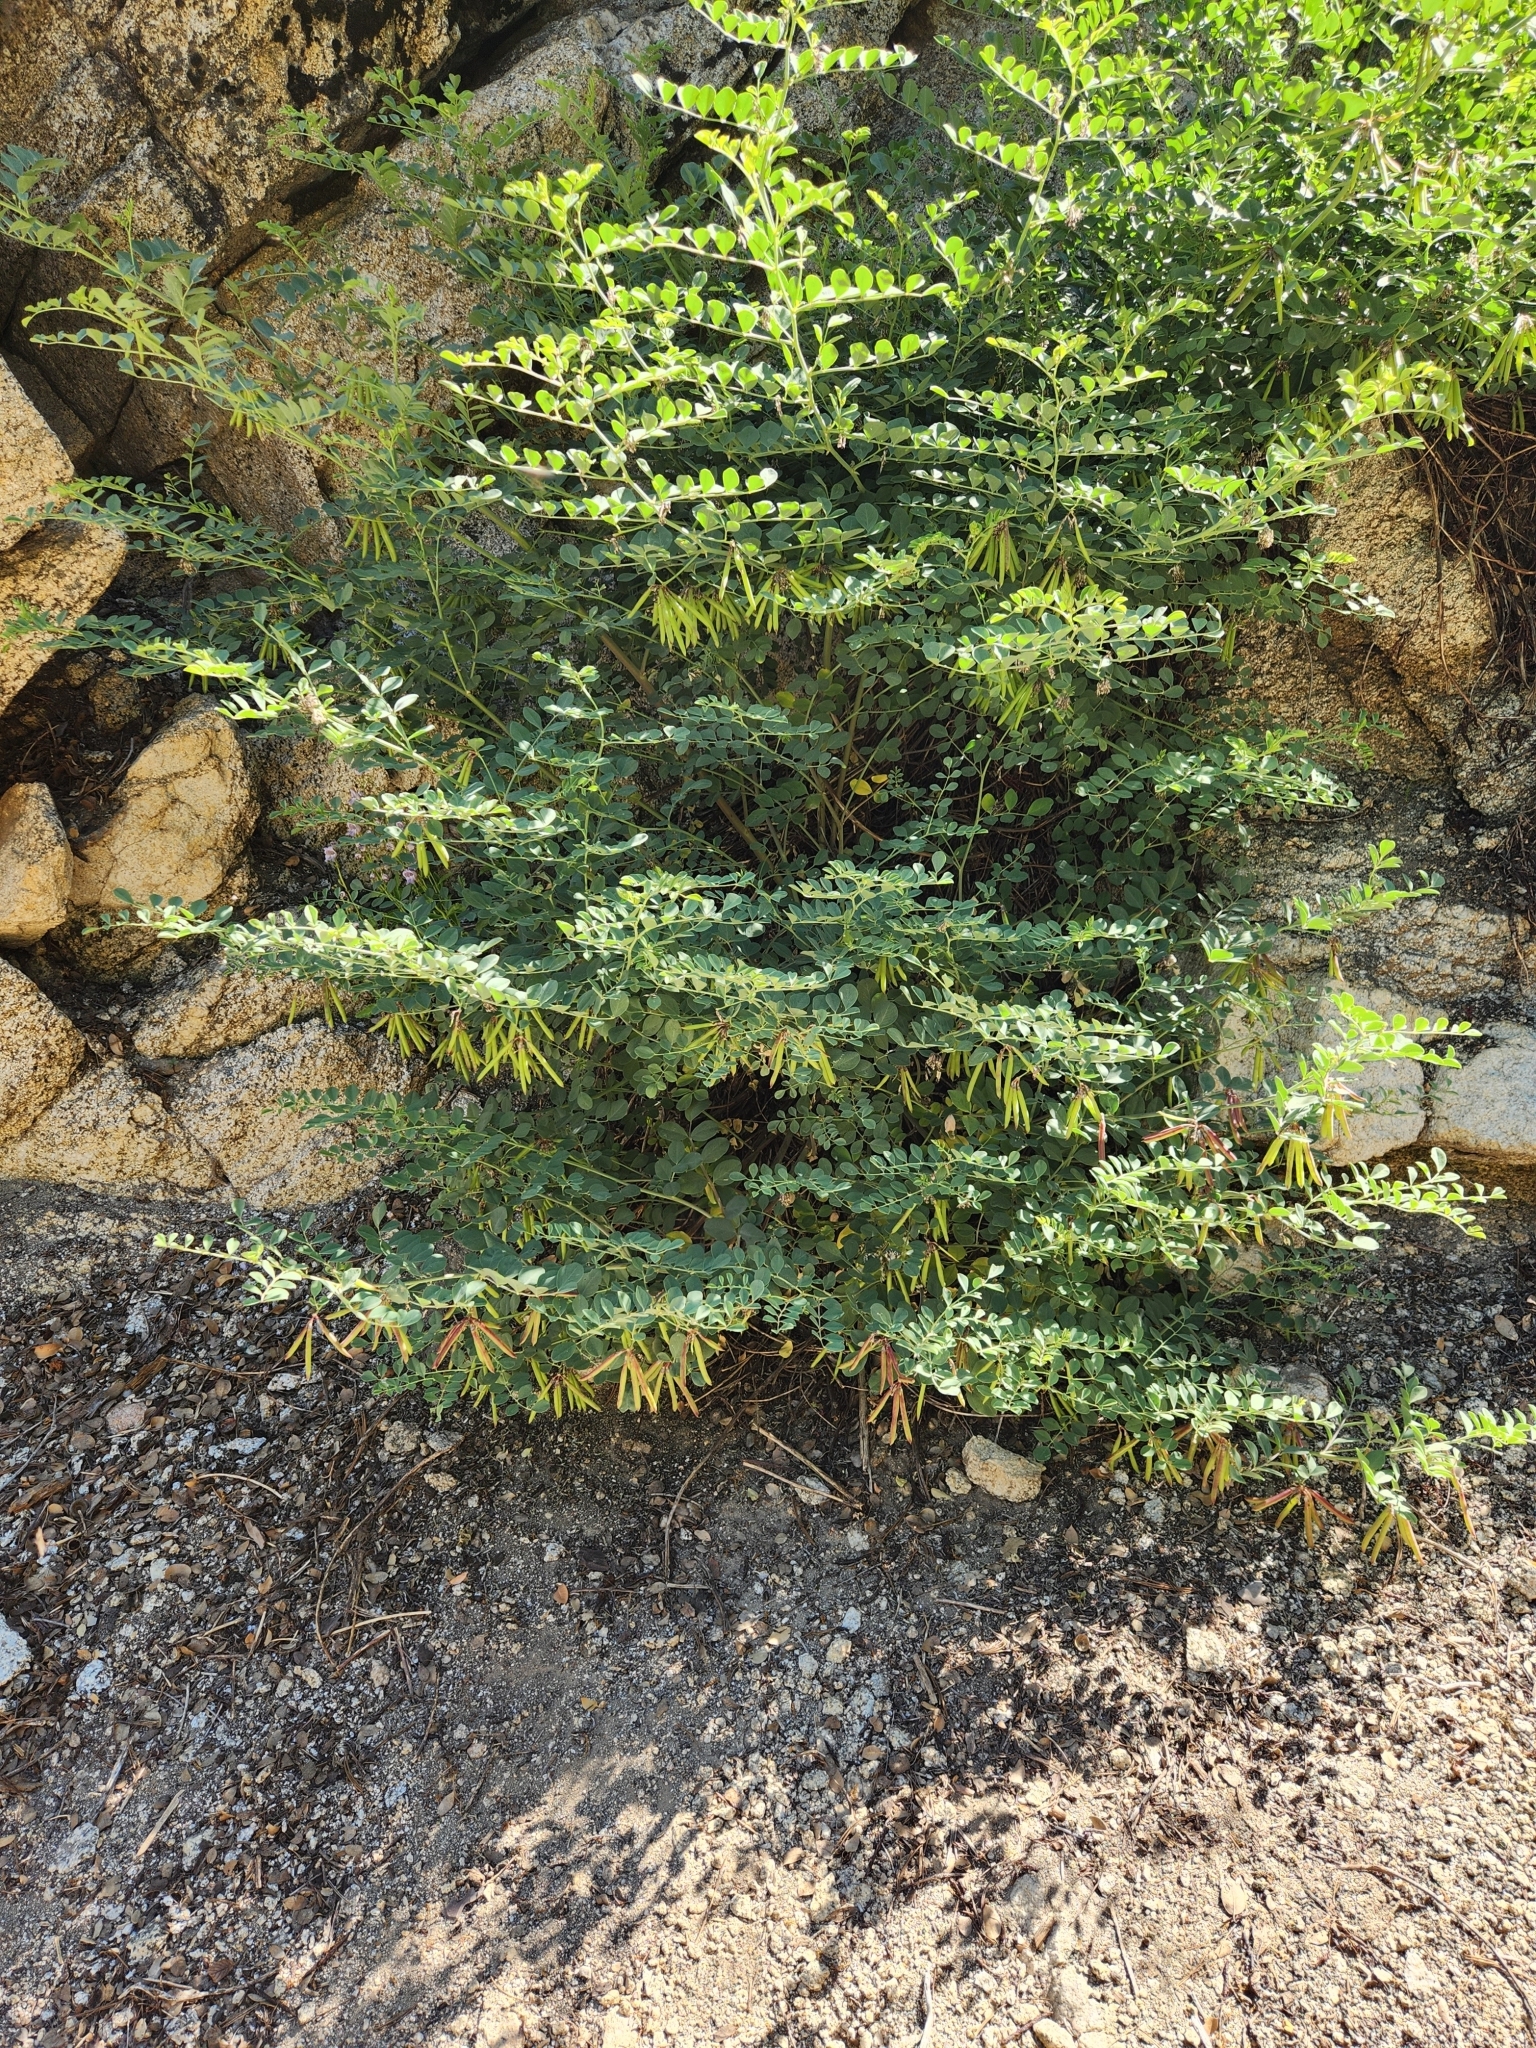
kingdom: Plantae
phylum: Tracheophyta
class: Magnoliopsida
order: Fabales
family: Fabaceae
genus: Hosackia
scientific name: Hosackia crassifolia
